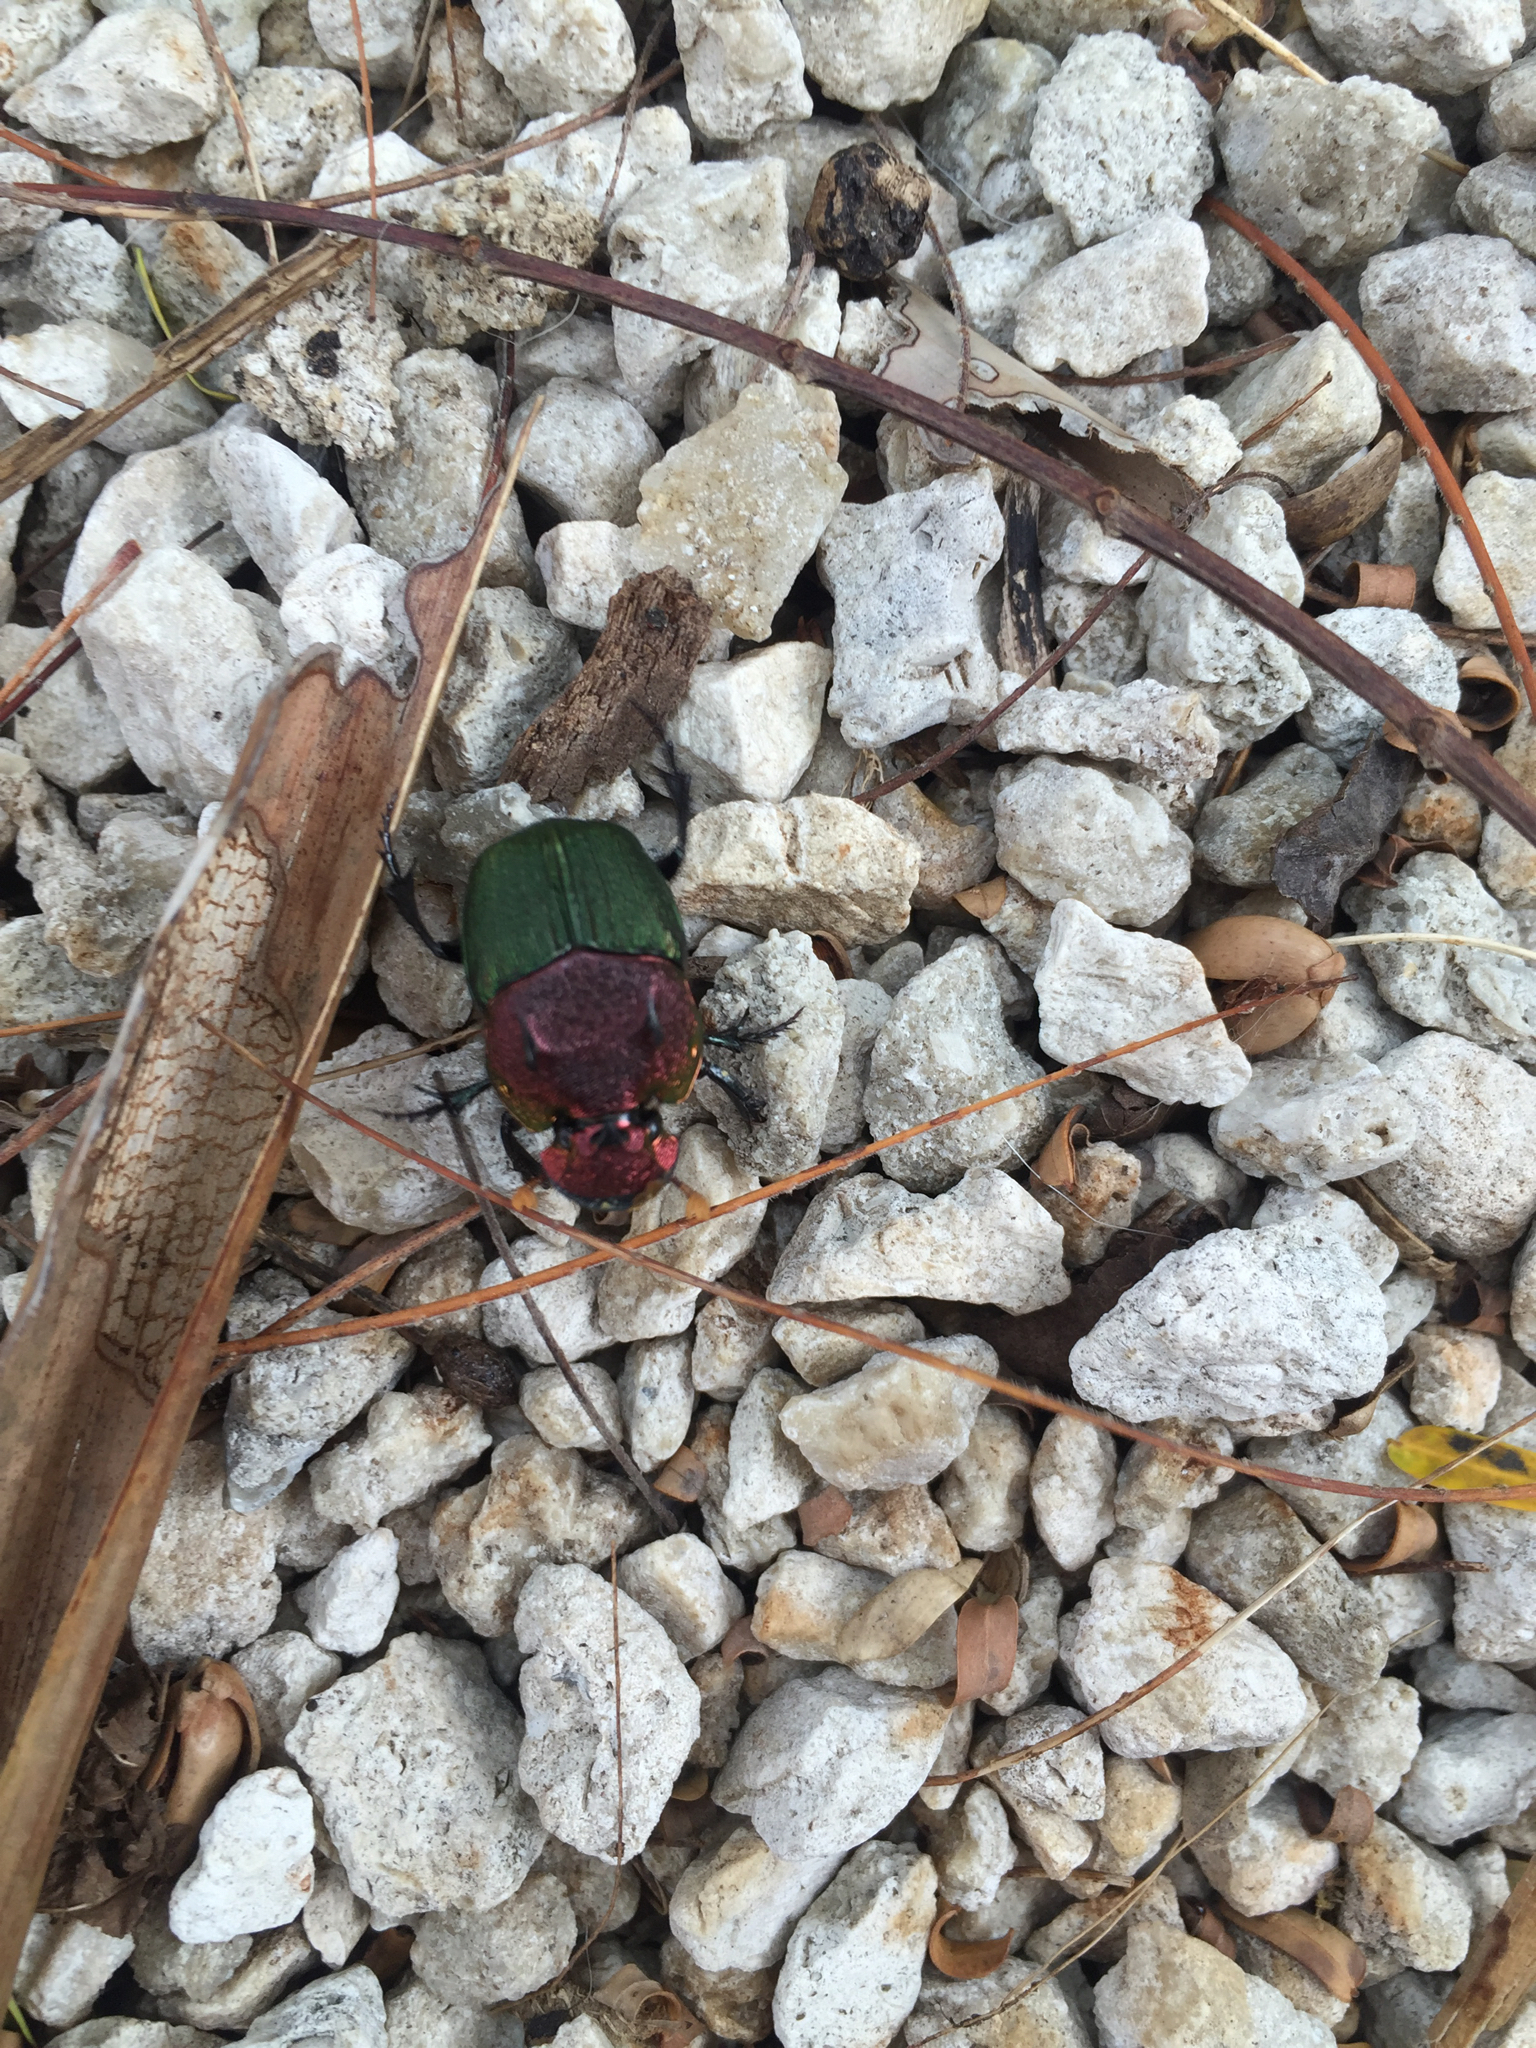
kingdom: Animalia
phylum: Arthropoda
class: Insecta
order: Coleoptera
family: Scarabaeidae
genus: Phanaeus
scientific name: Phanaeus vindex
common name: Rainbow scarab
